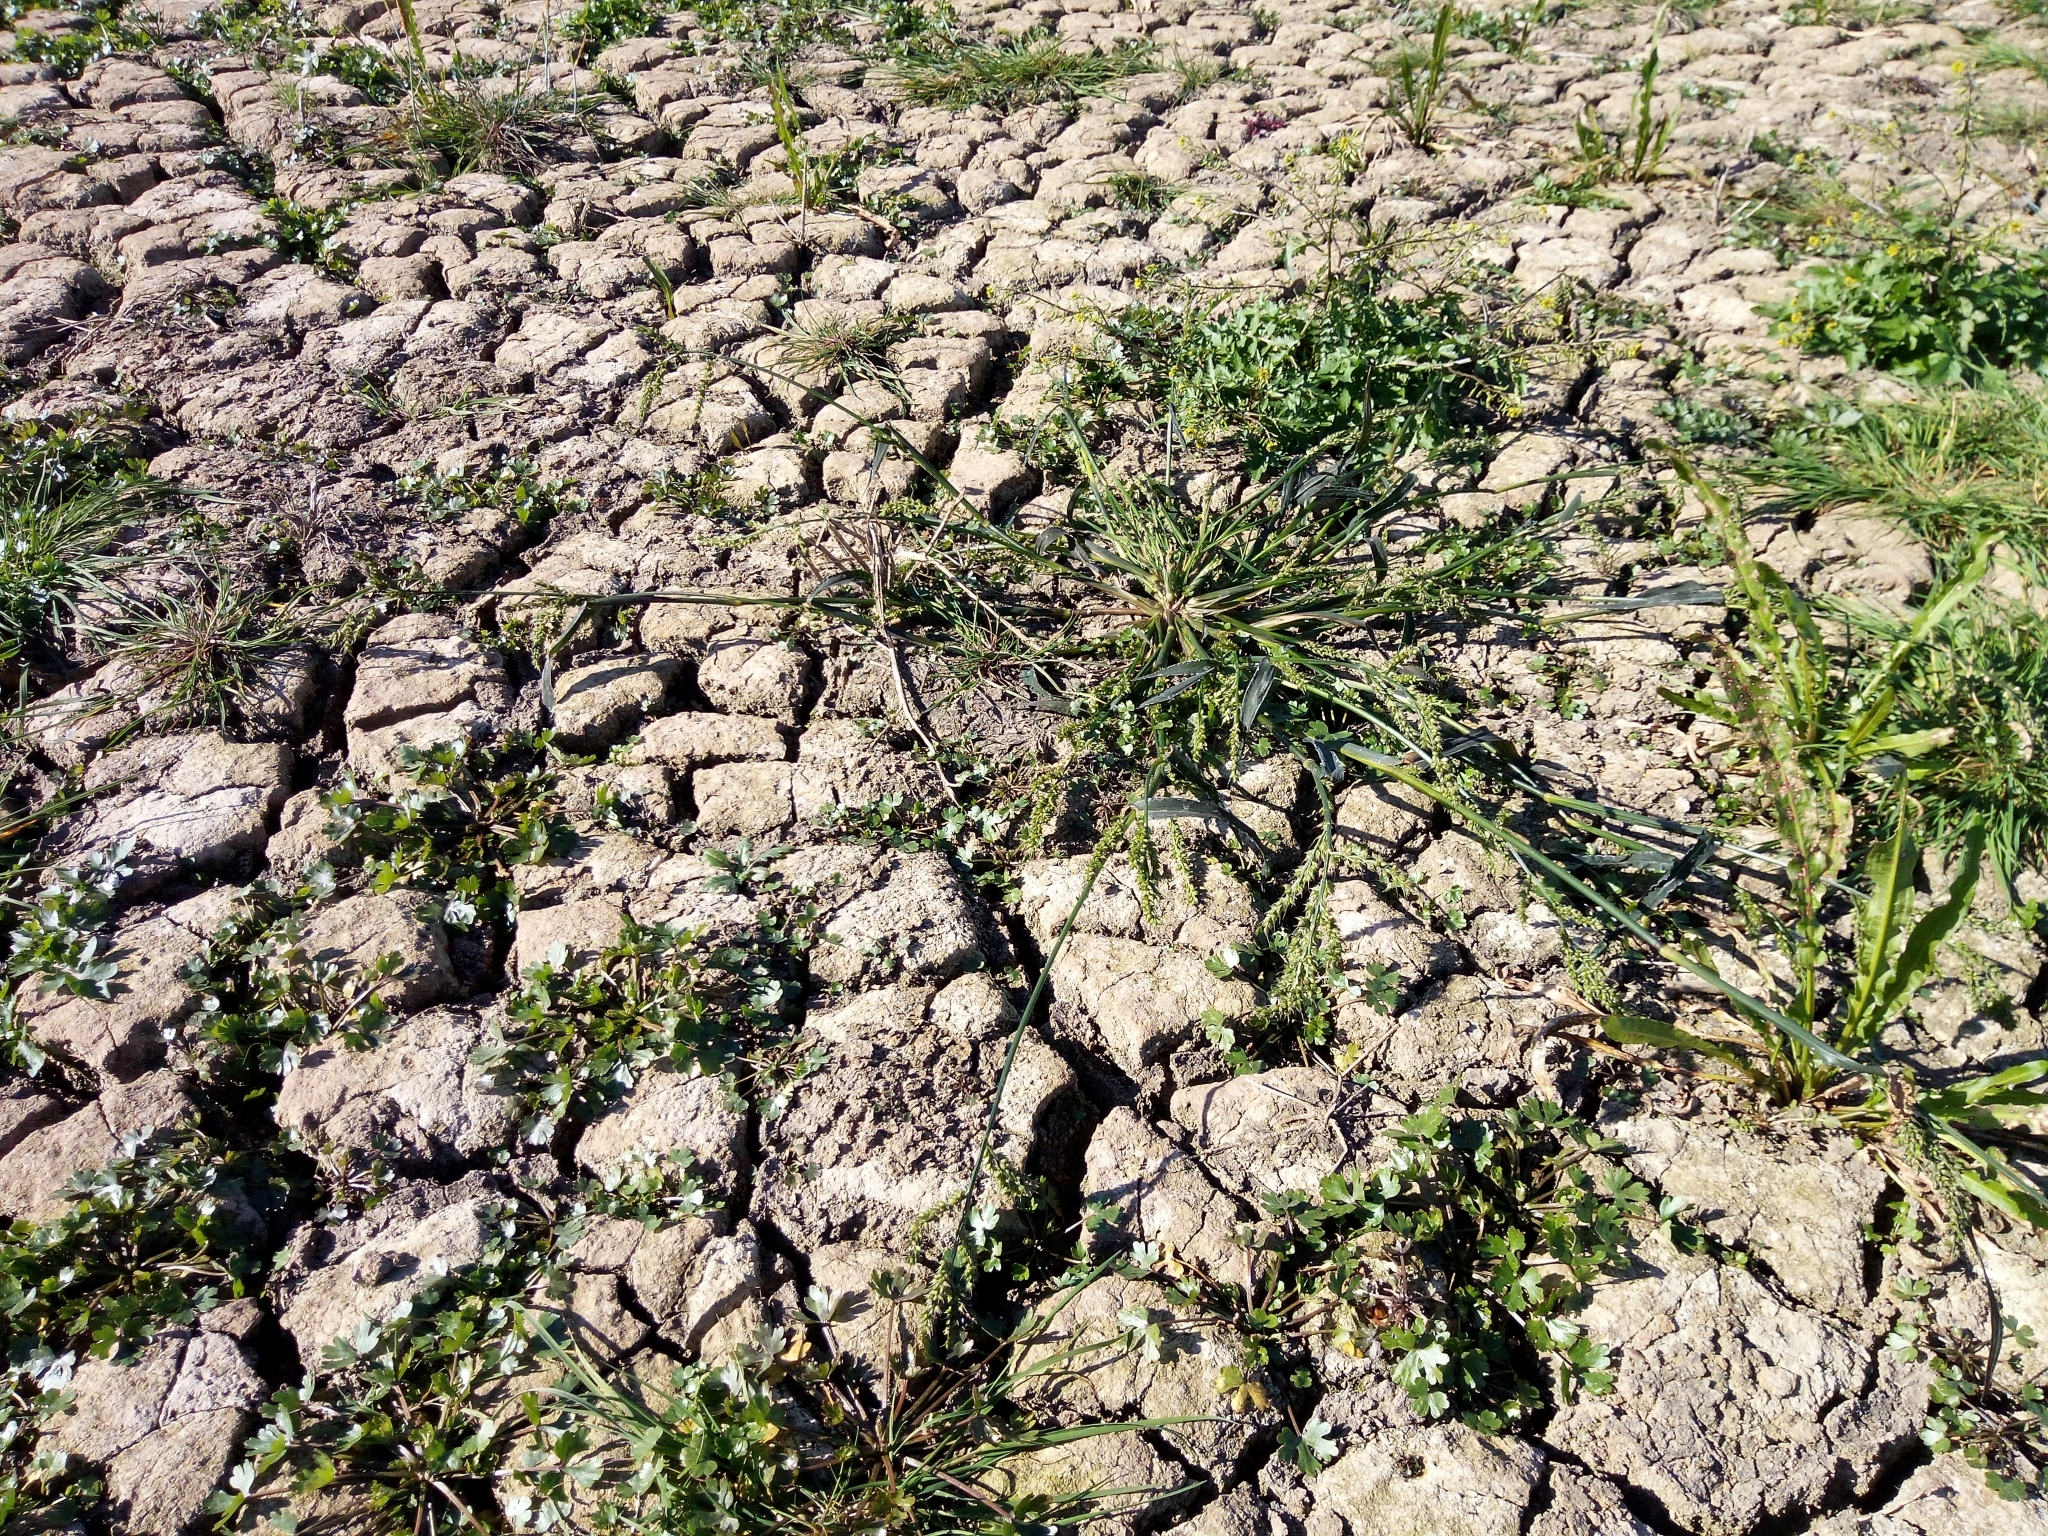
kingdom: Plantae
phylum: Tracheophyta
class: Liliopsida
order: Poales
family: Poaceae
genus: Echinochloa
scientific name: Echinochloa crus-galli
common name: Cockspur
